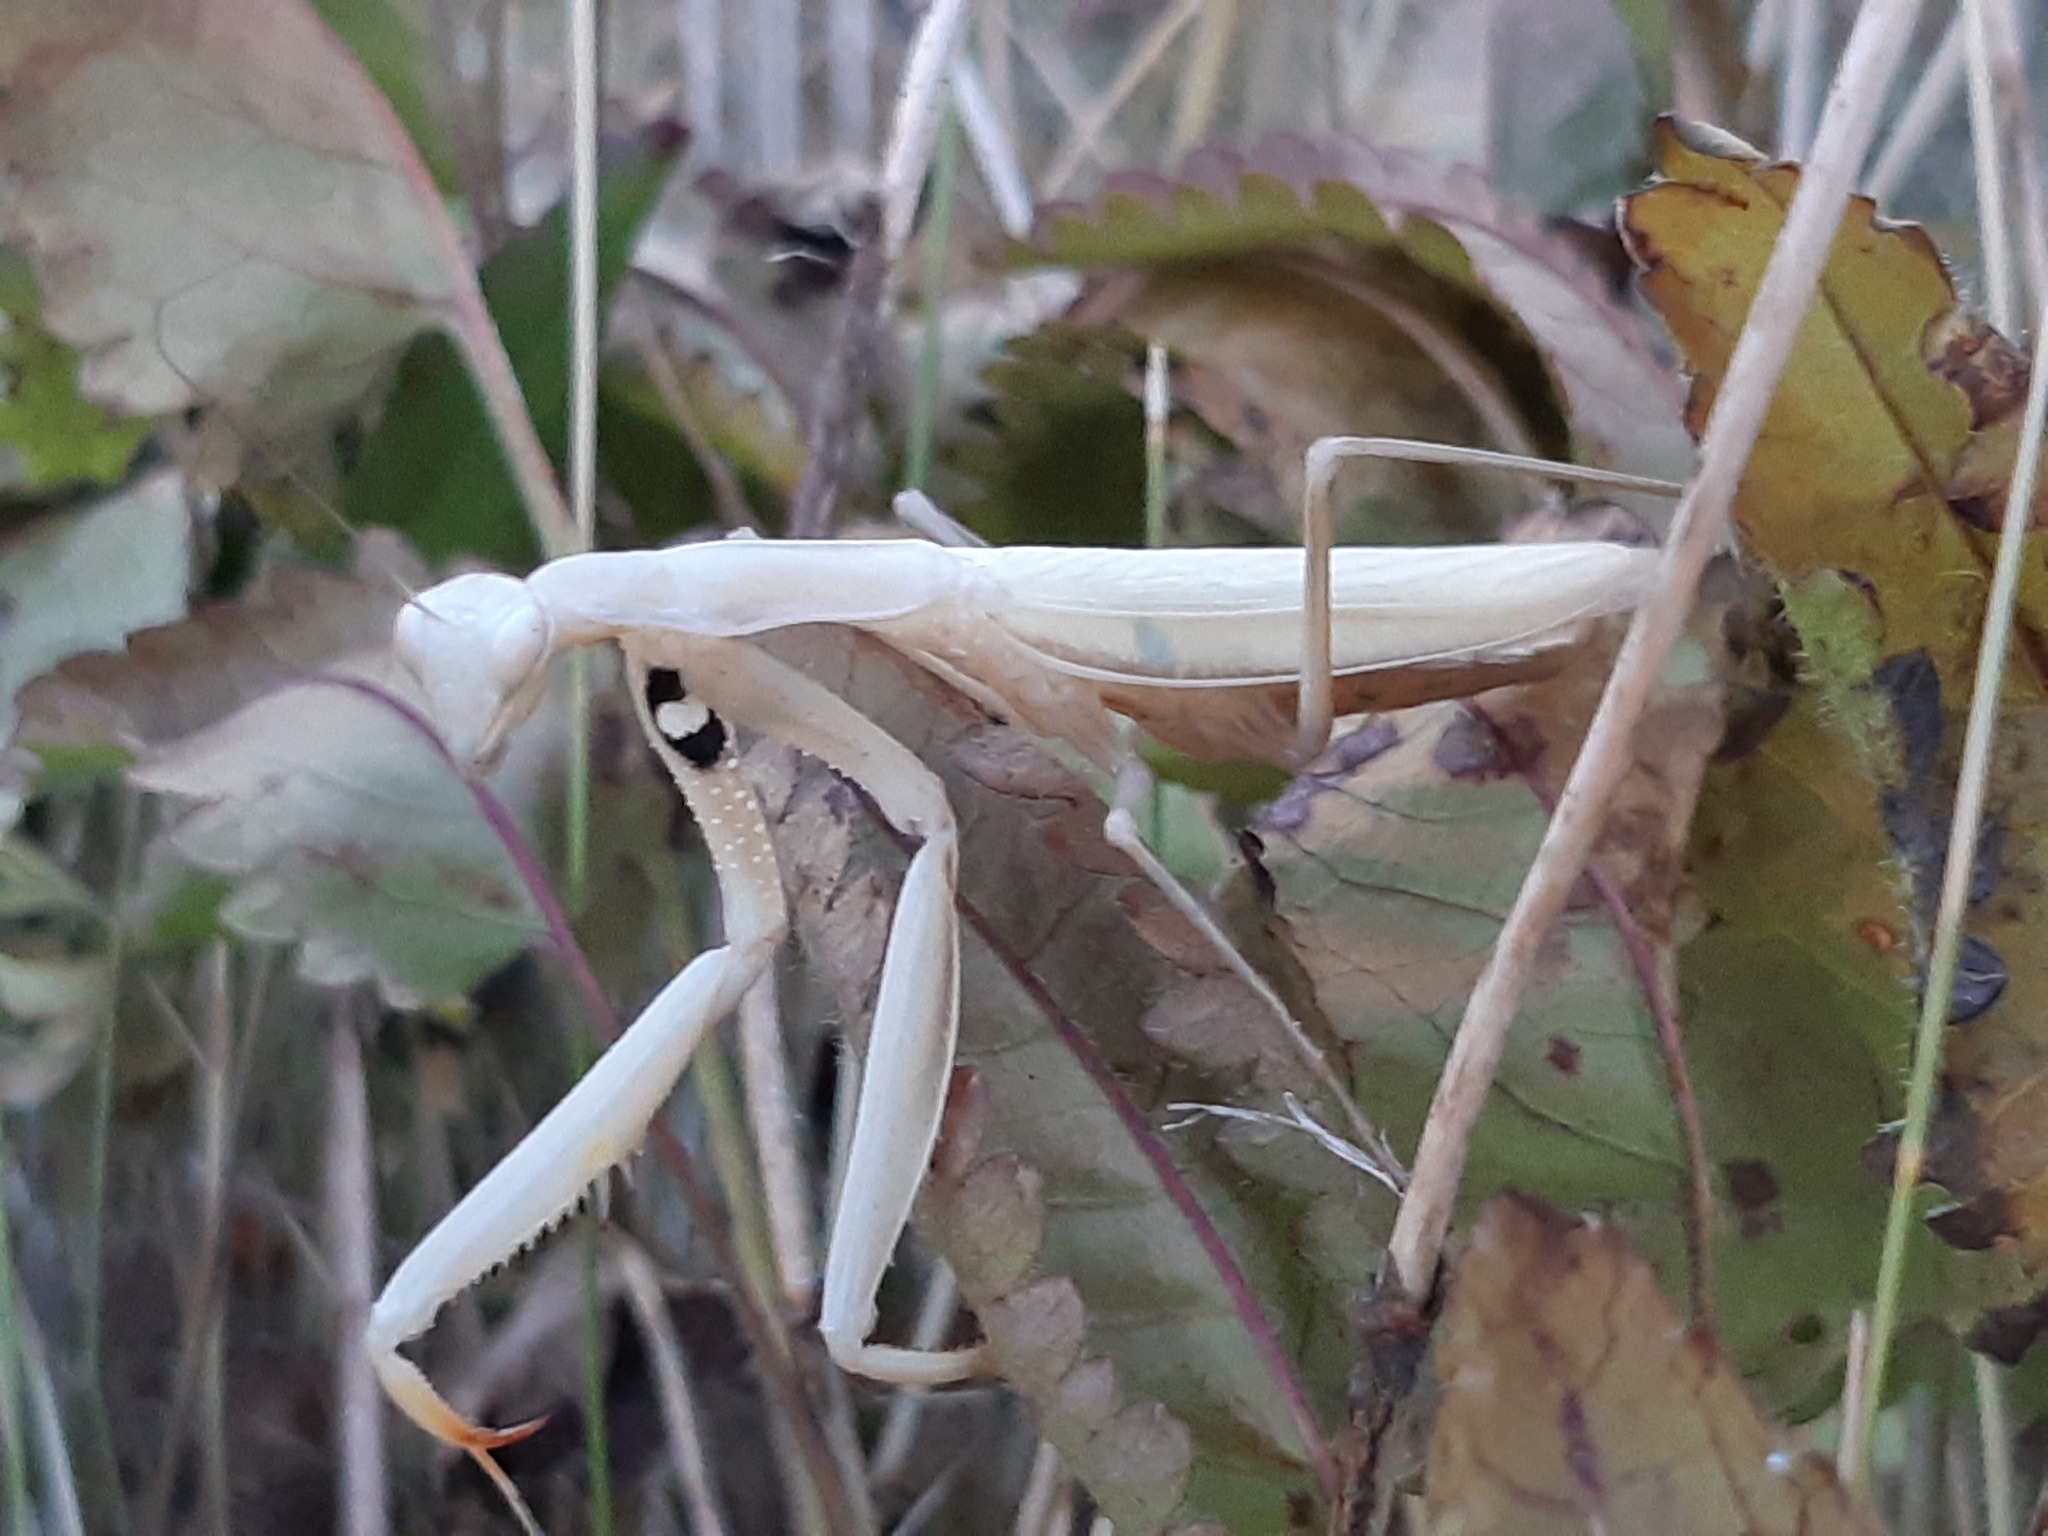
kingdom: Animalia
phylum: Arthropoda
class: Insecta
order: Mantodea
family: Mantidae
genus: Mantis
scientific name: Mantis religiosa
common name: Praying mantis
